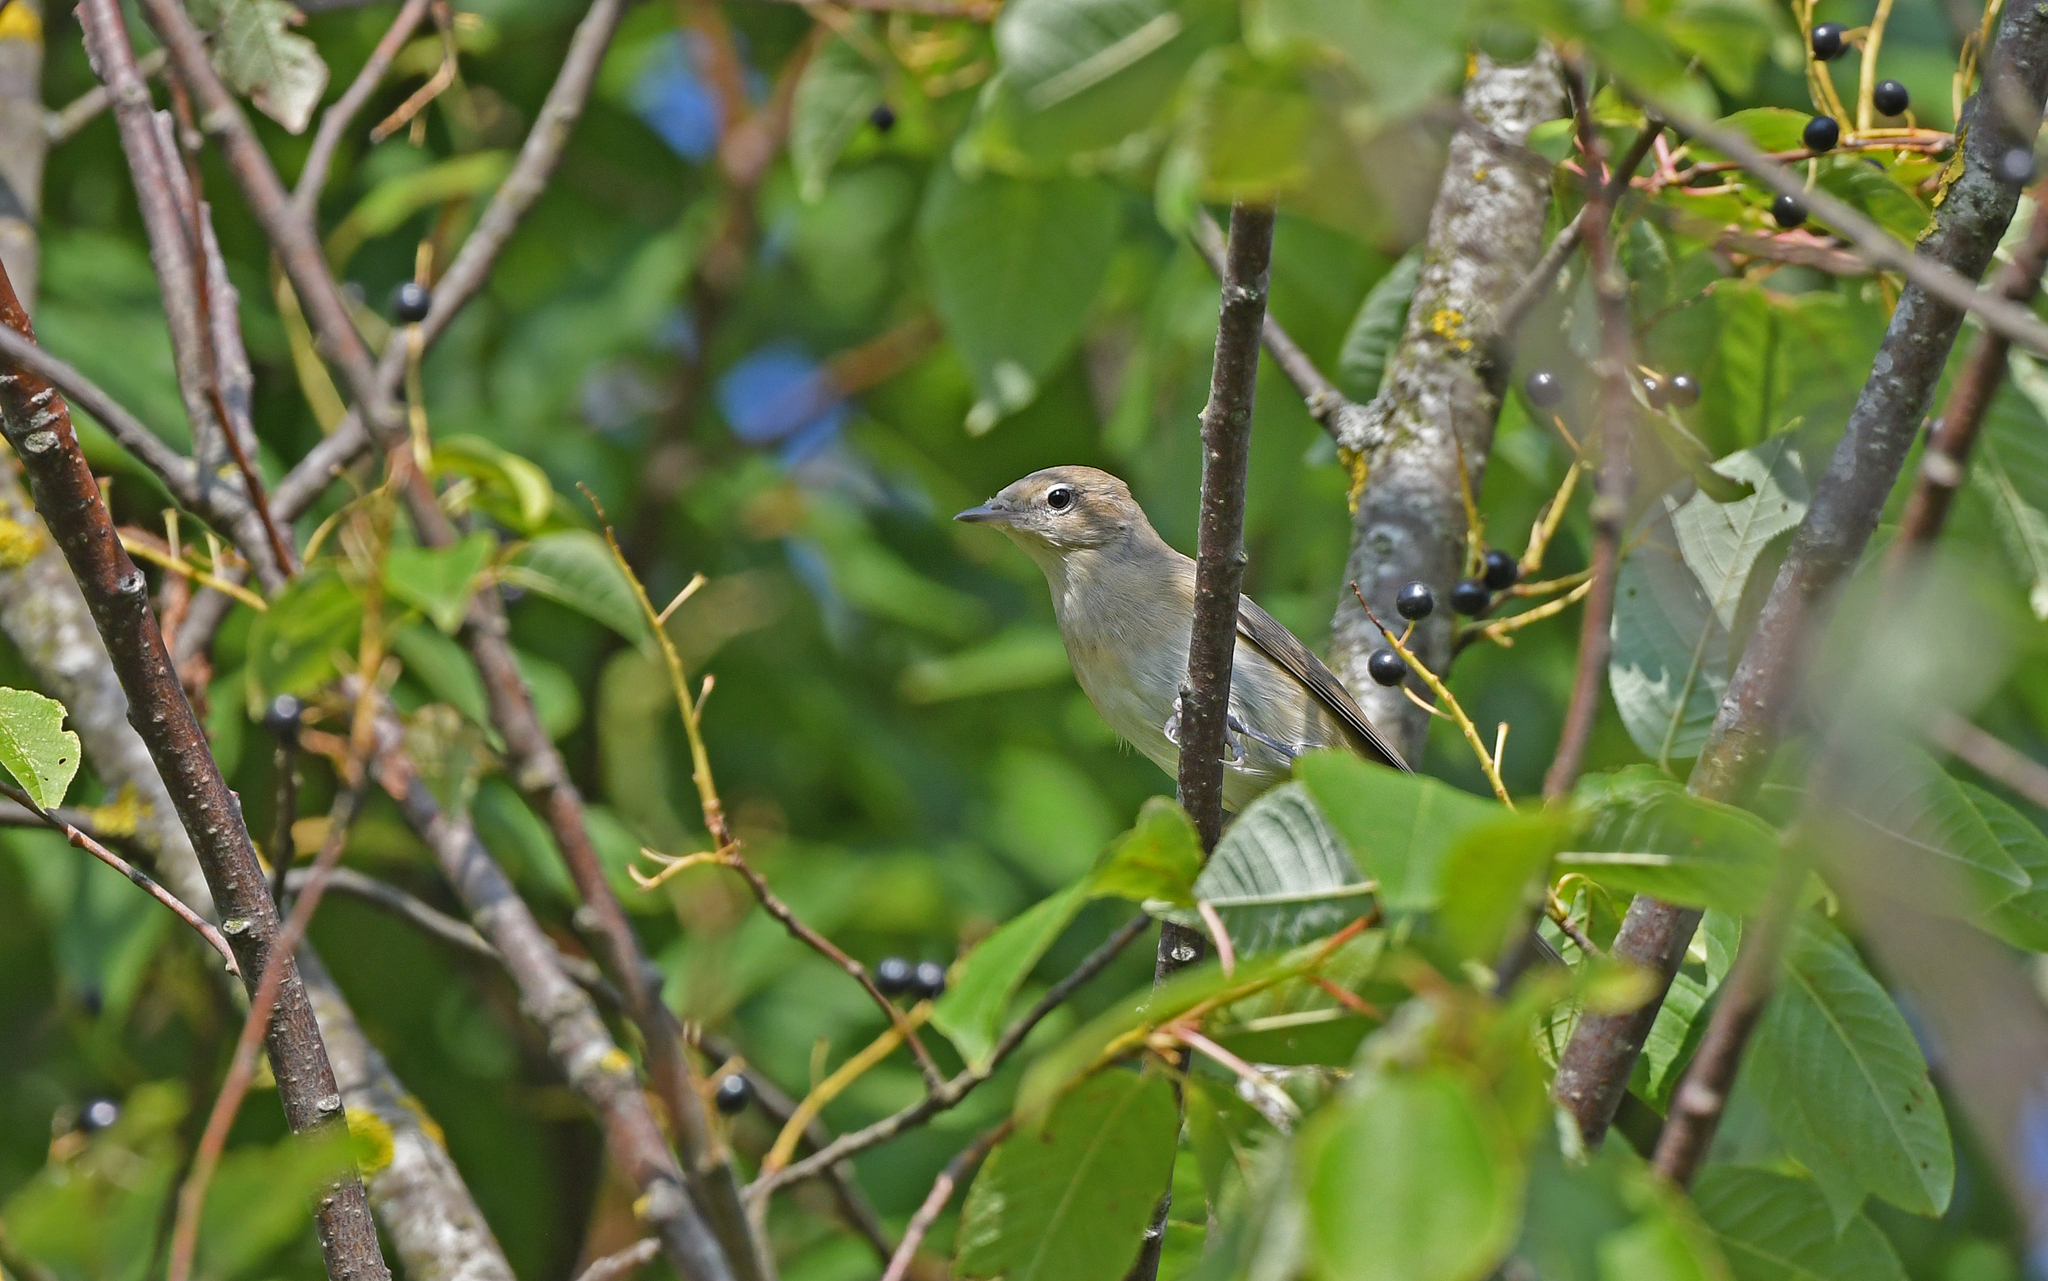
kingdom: Animalia
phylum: Chordata
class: Aves
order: Passeriformes
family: Sylviidae
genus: Sylvia
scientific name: Sylvia borin
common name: Garden warbler
